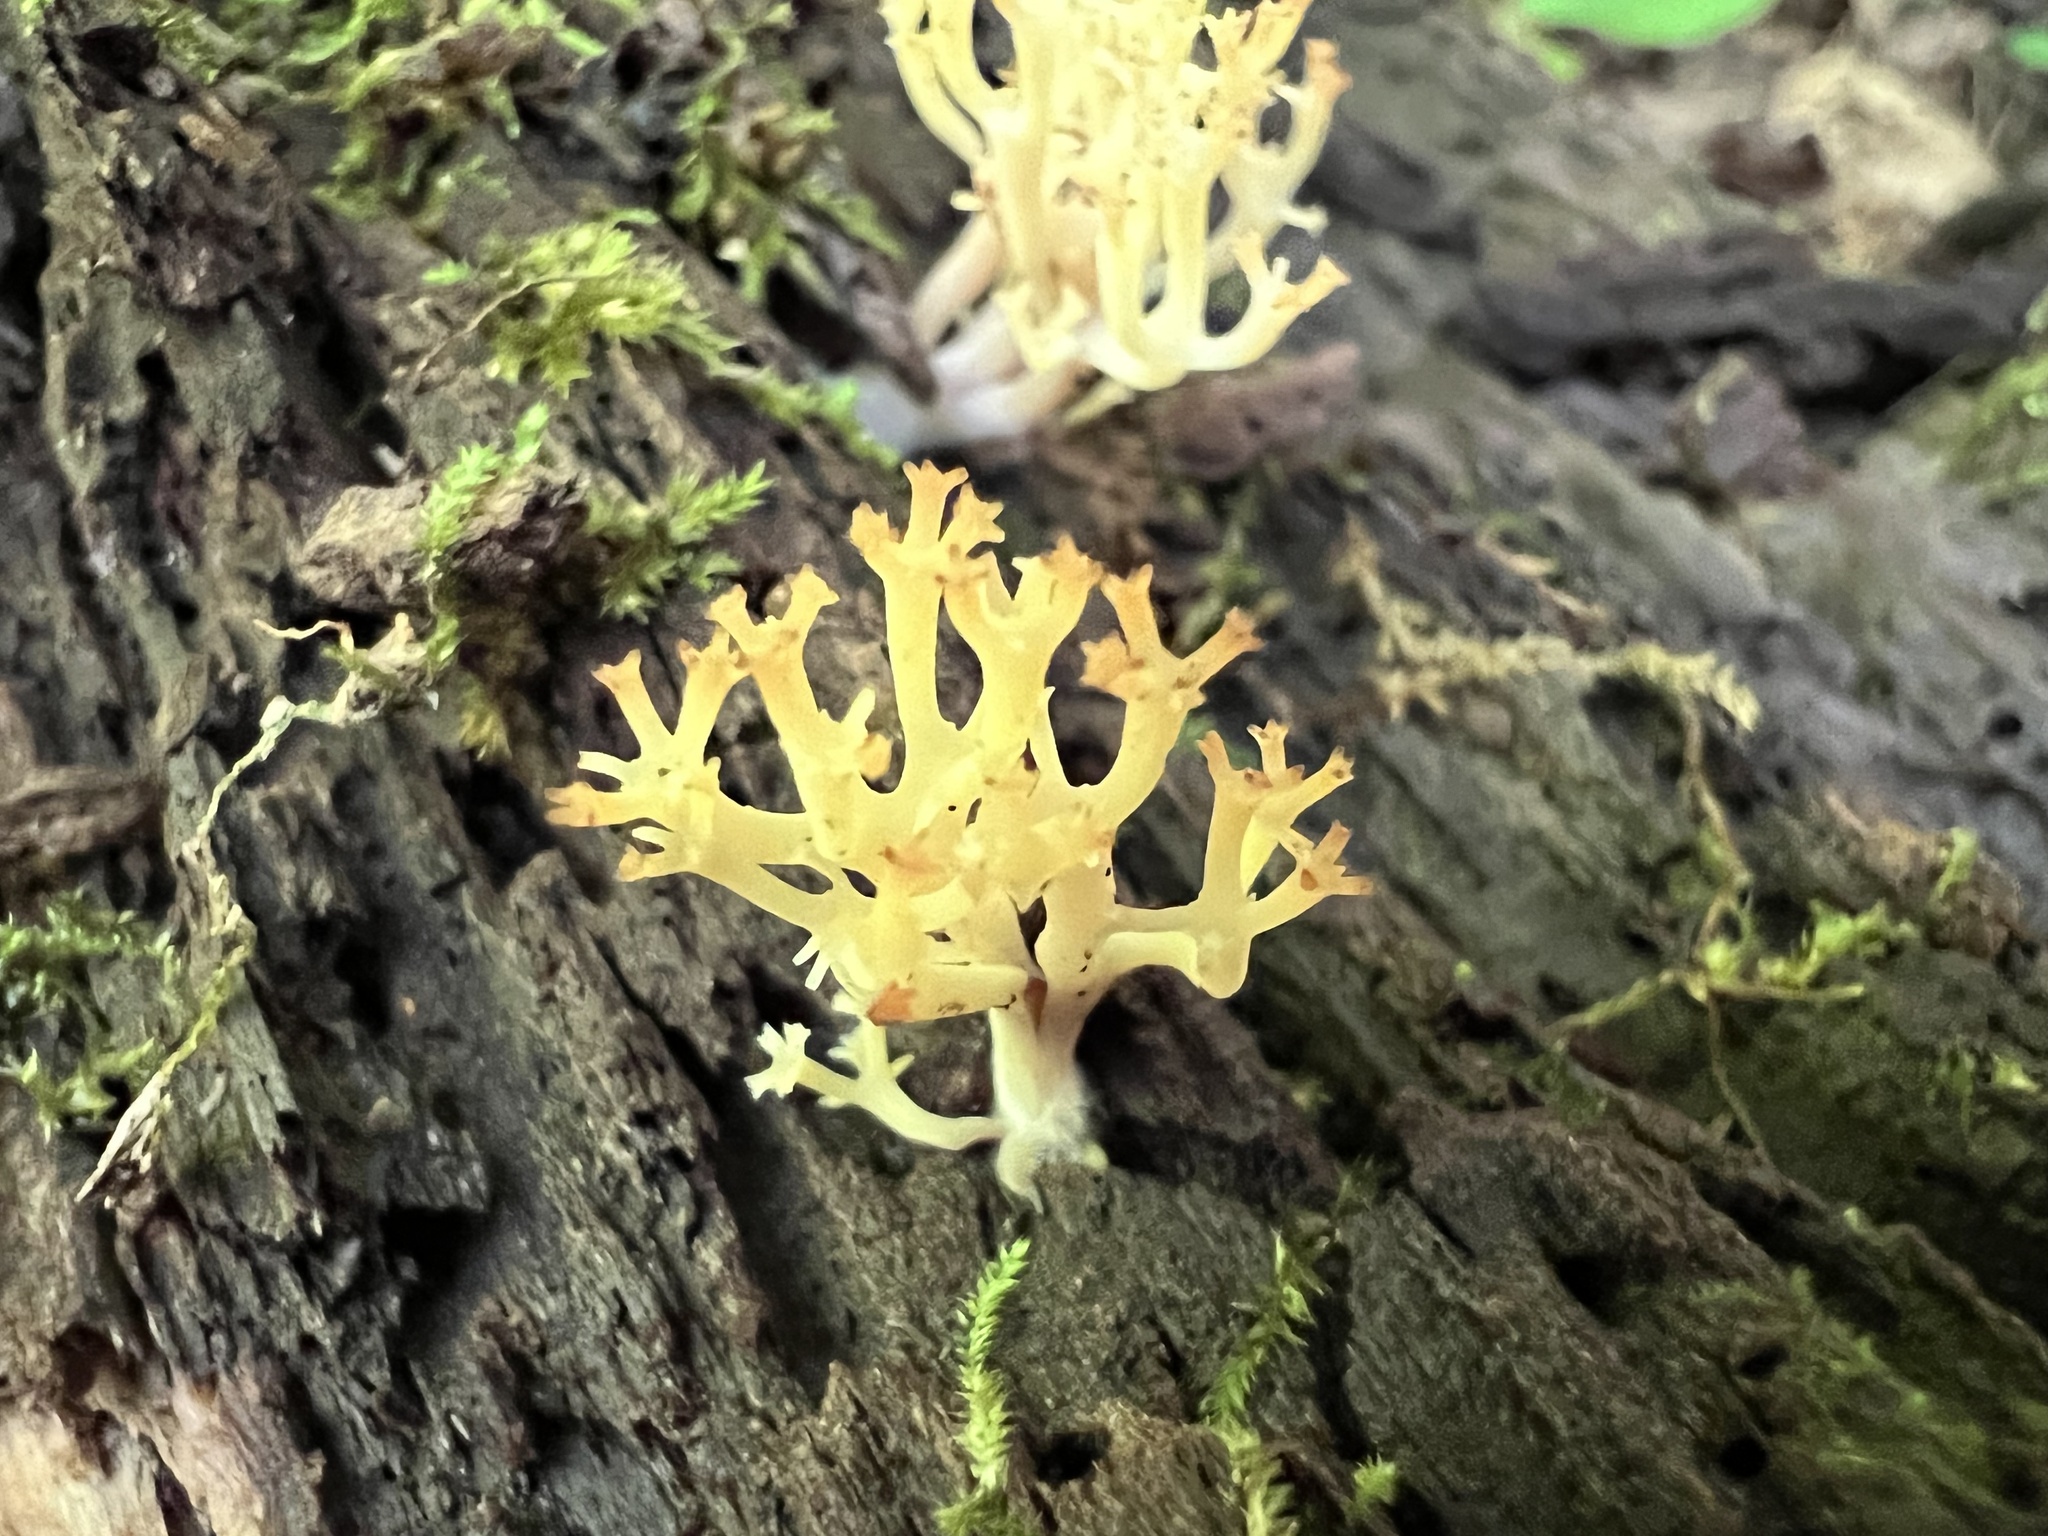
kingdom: Fungi
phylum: Basidiomycota
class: Agaricomycetes
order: Russulales
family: Auriscalpiaceae
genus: Artomyces
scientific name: Artomyces pyxidatus
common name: Crown-tipped coral fungus
